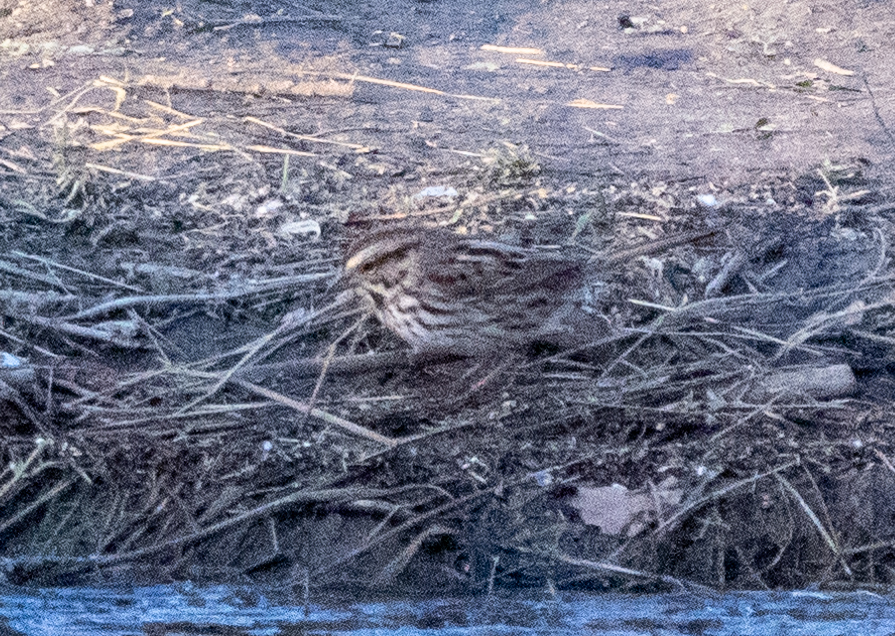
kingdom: Animalia
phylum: Chordata
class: Aves
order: Passeriformes
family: Passerellidae
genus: Melospiza
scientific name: Melospiza melodia
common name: Song sparrow
